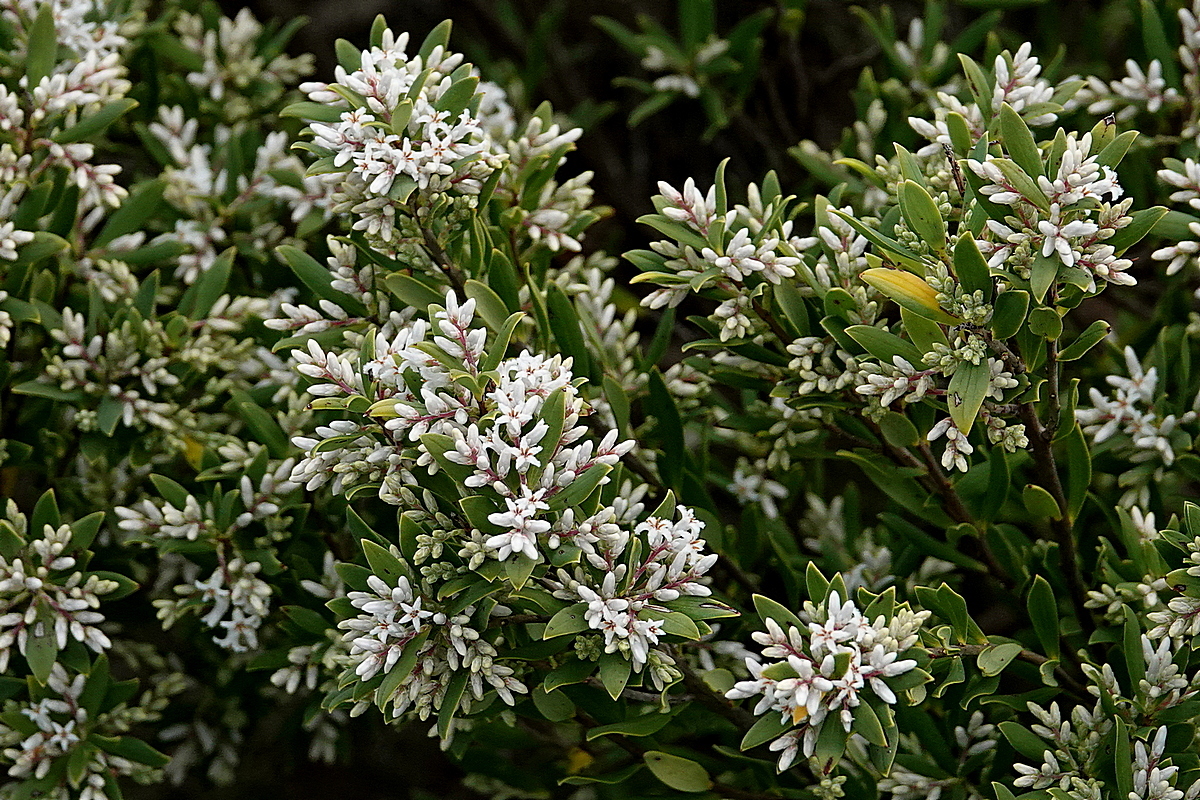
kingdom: Plantae
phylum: Tracheophyta
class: Magnoliopsida
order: Ericales
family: Ericaceae
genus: Leptecophylla
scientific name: Leptecophylla parvifolia
